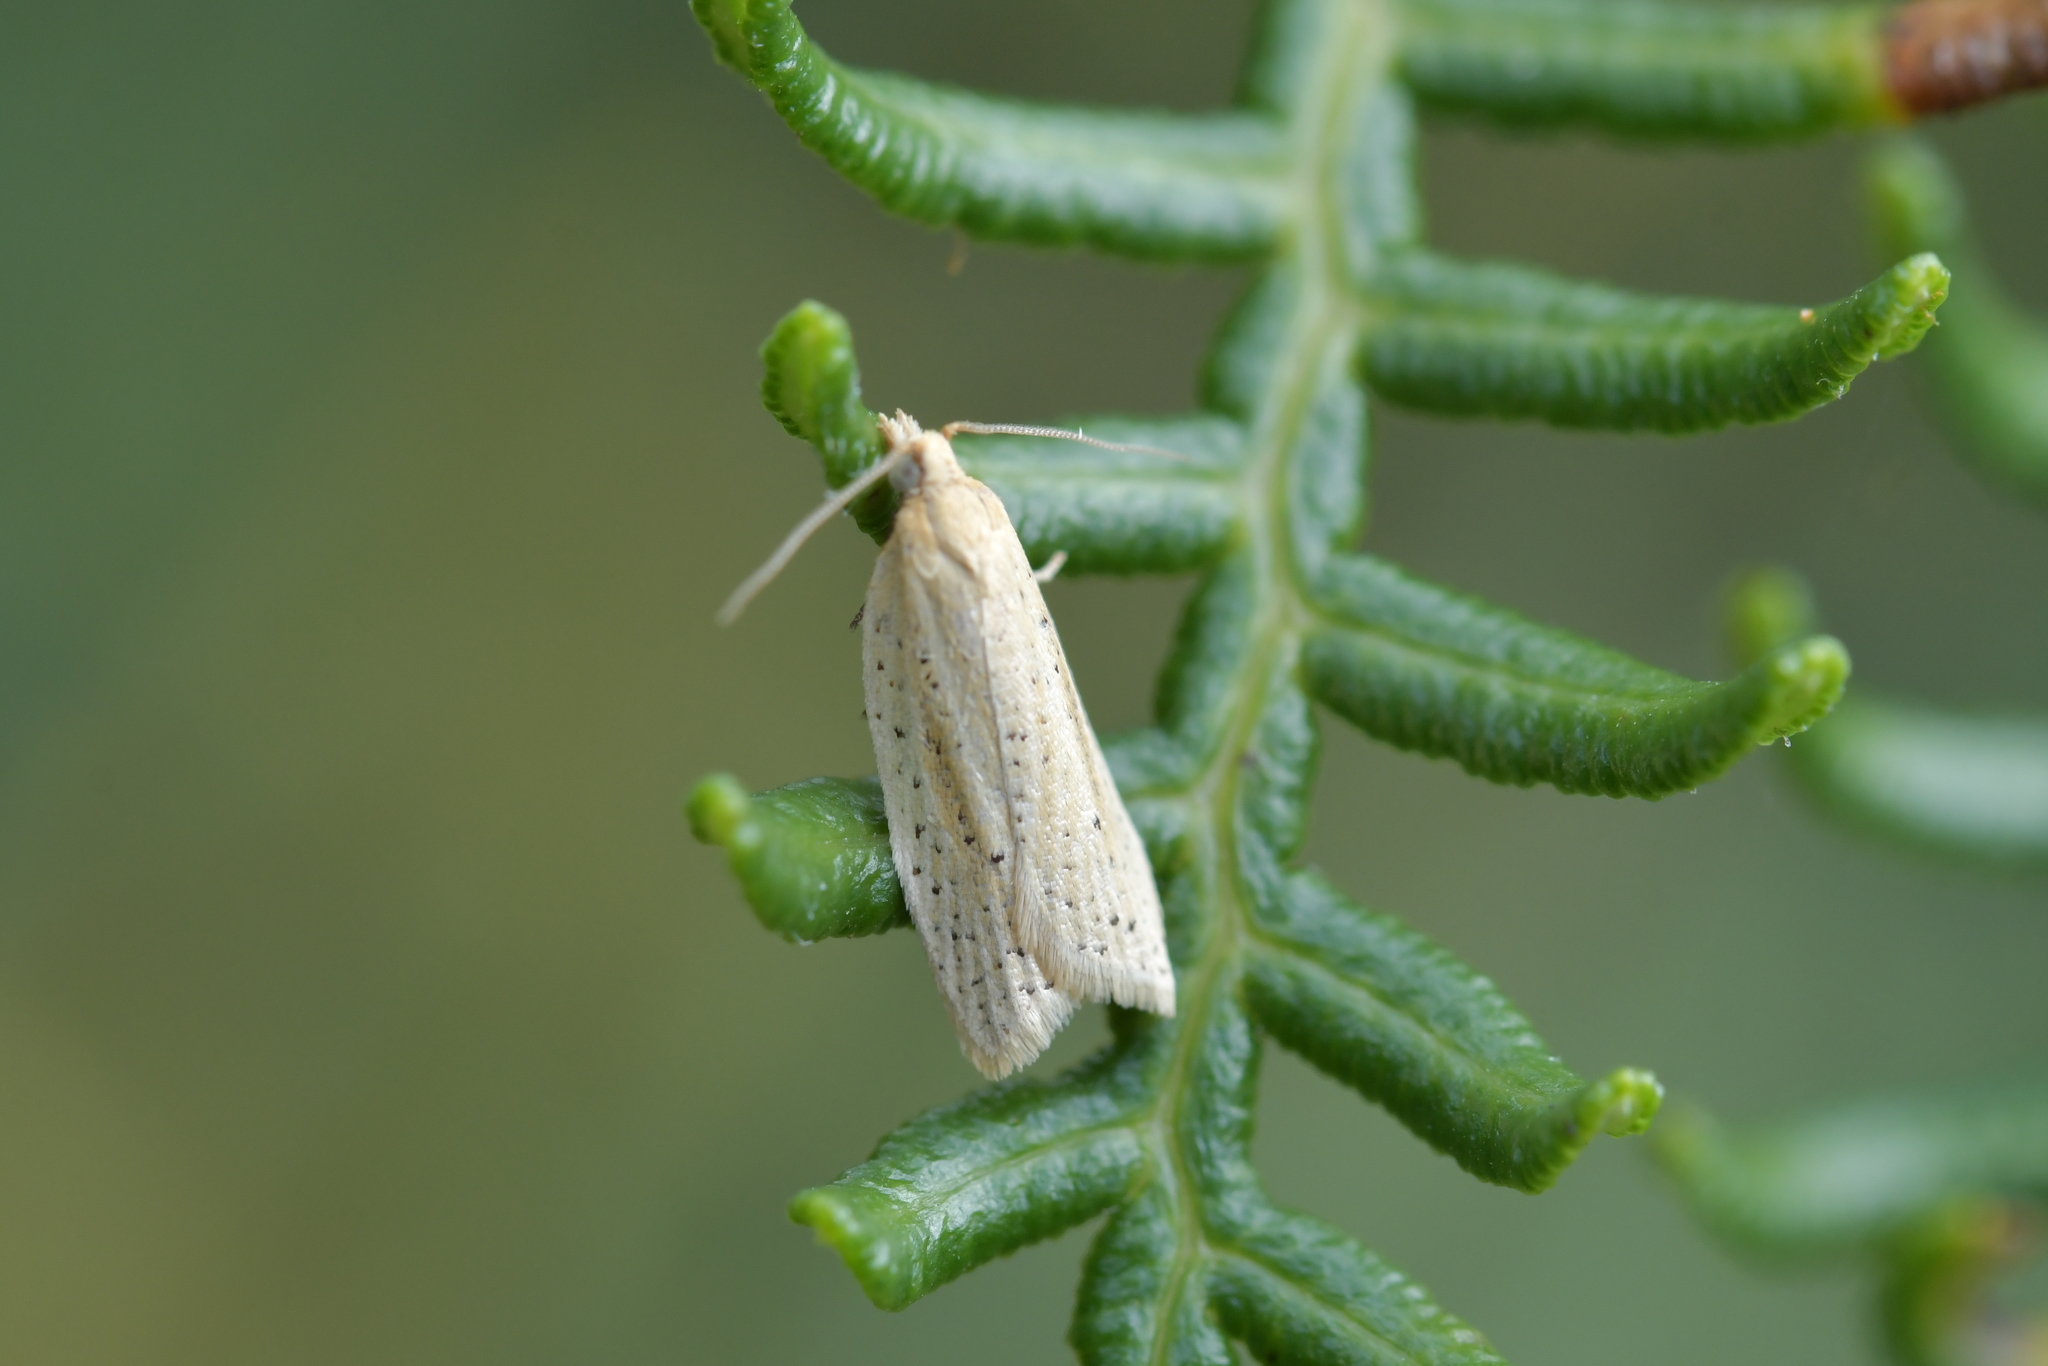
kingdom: Animalia
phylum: Arthropoda
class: Insecta
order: Lepidoptera
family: Tortricidae
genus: Clepsis
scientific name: Clepsis
